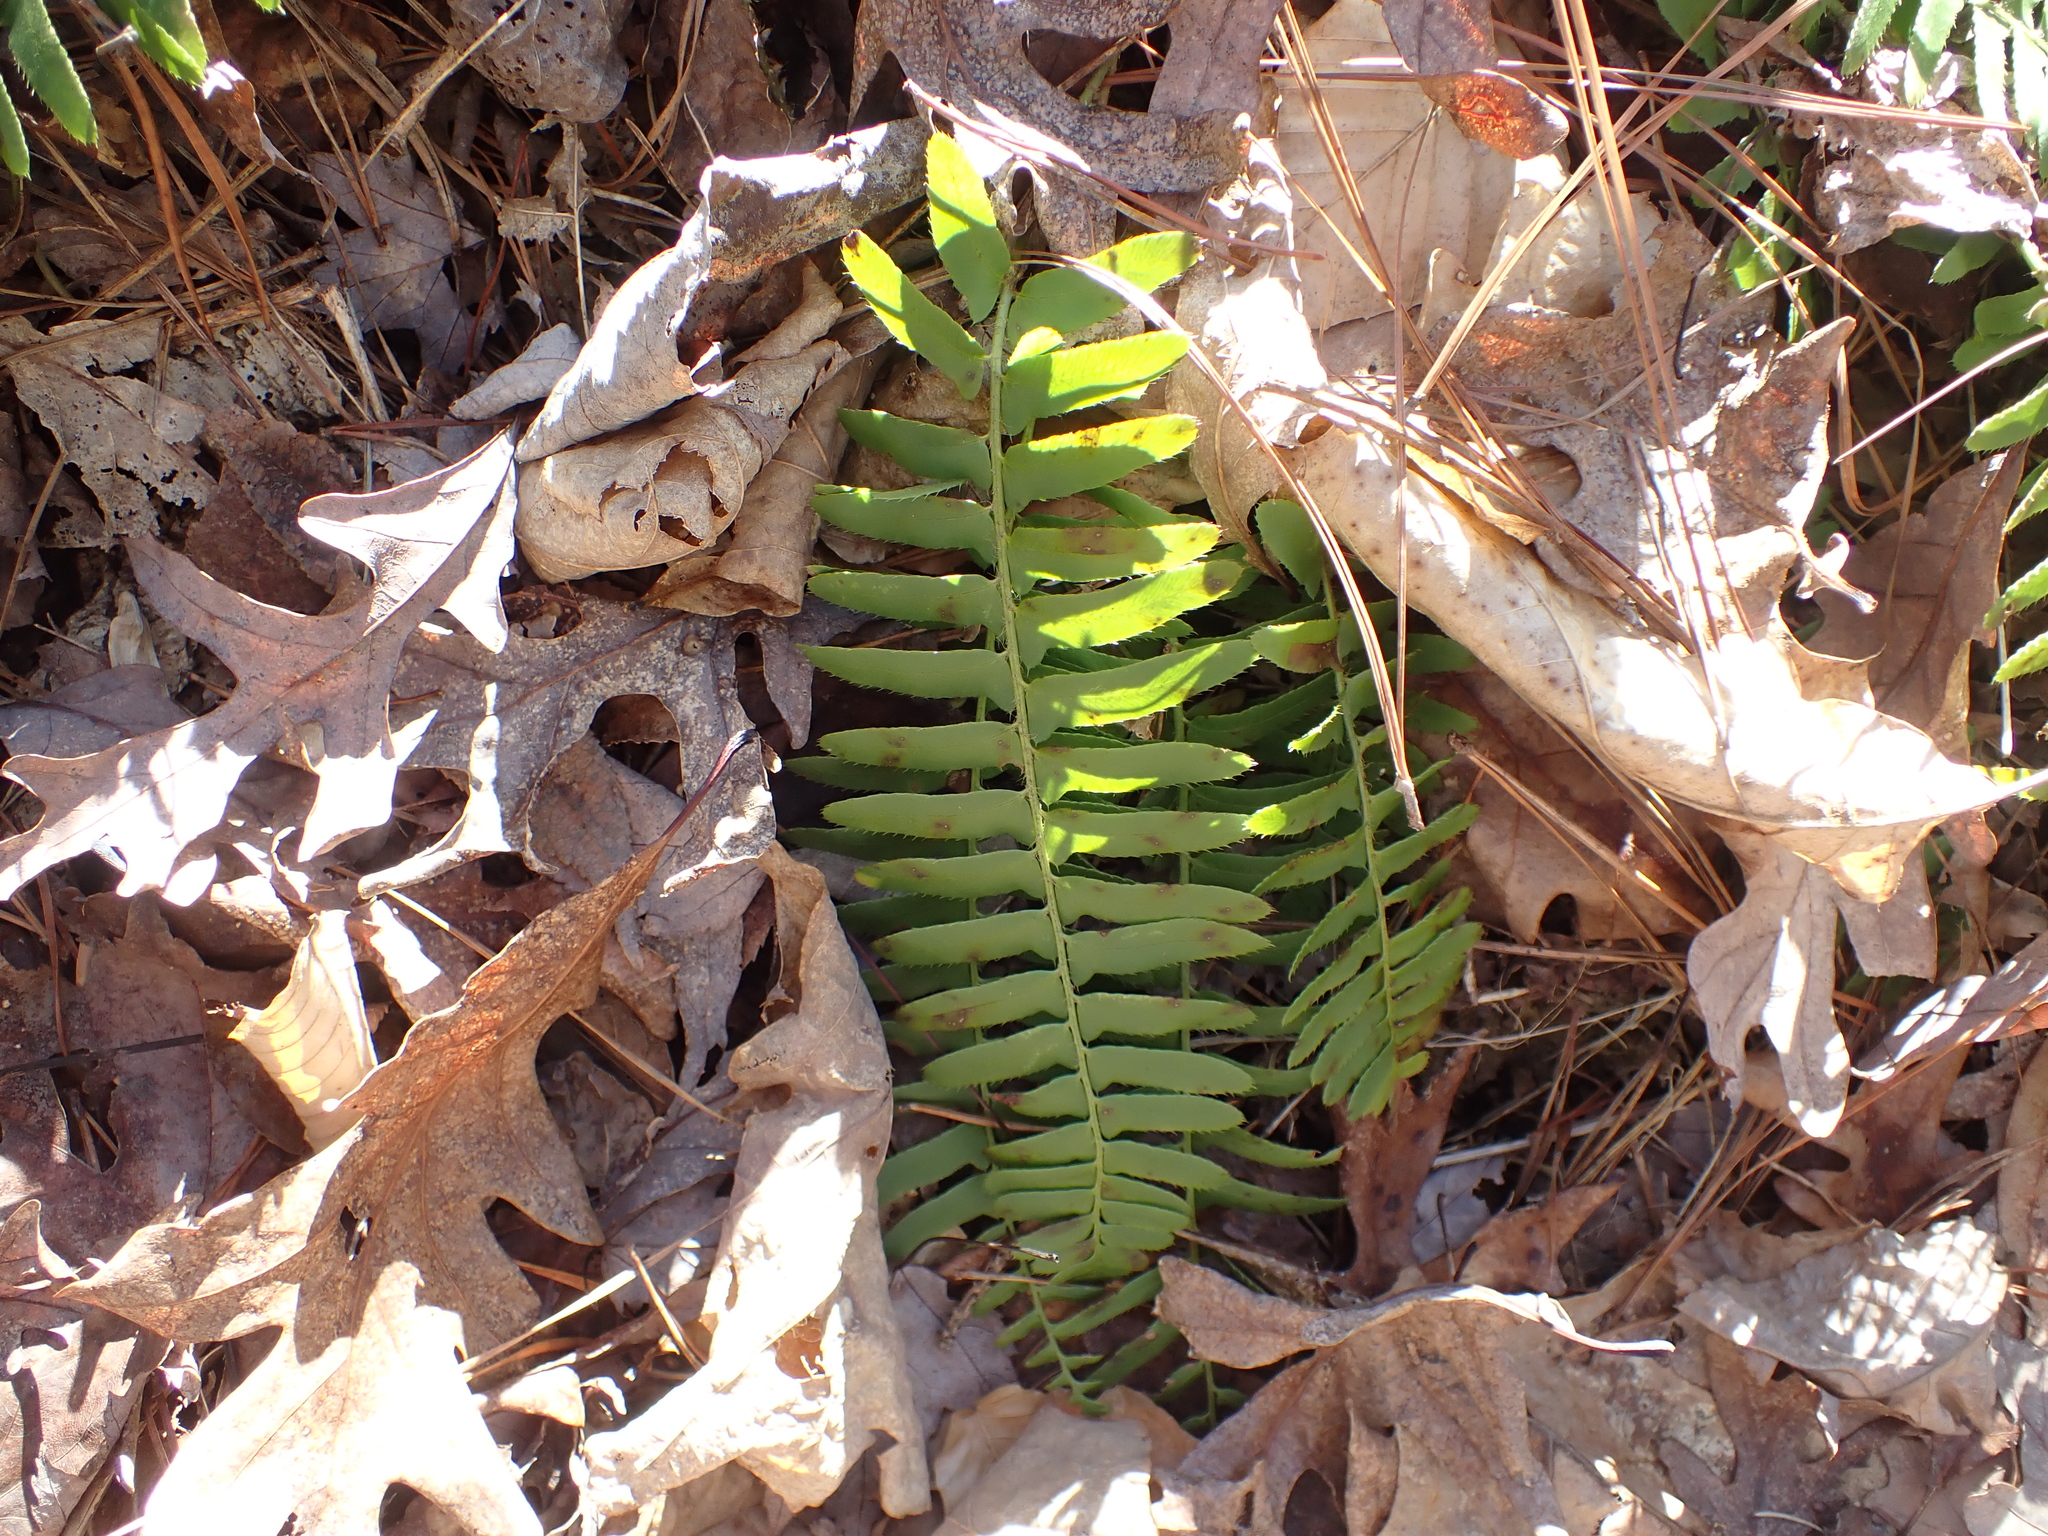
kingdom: Plantae
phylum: Tracheophyta
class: Polypodiopsida
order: Polypodiales
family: Dryopteridaceae
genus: Polystichum
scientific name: Polystichum acrostichoides
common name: Christmas fern
